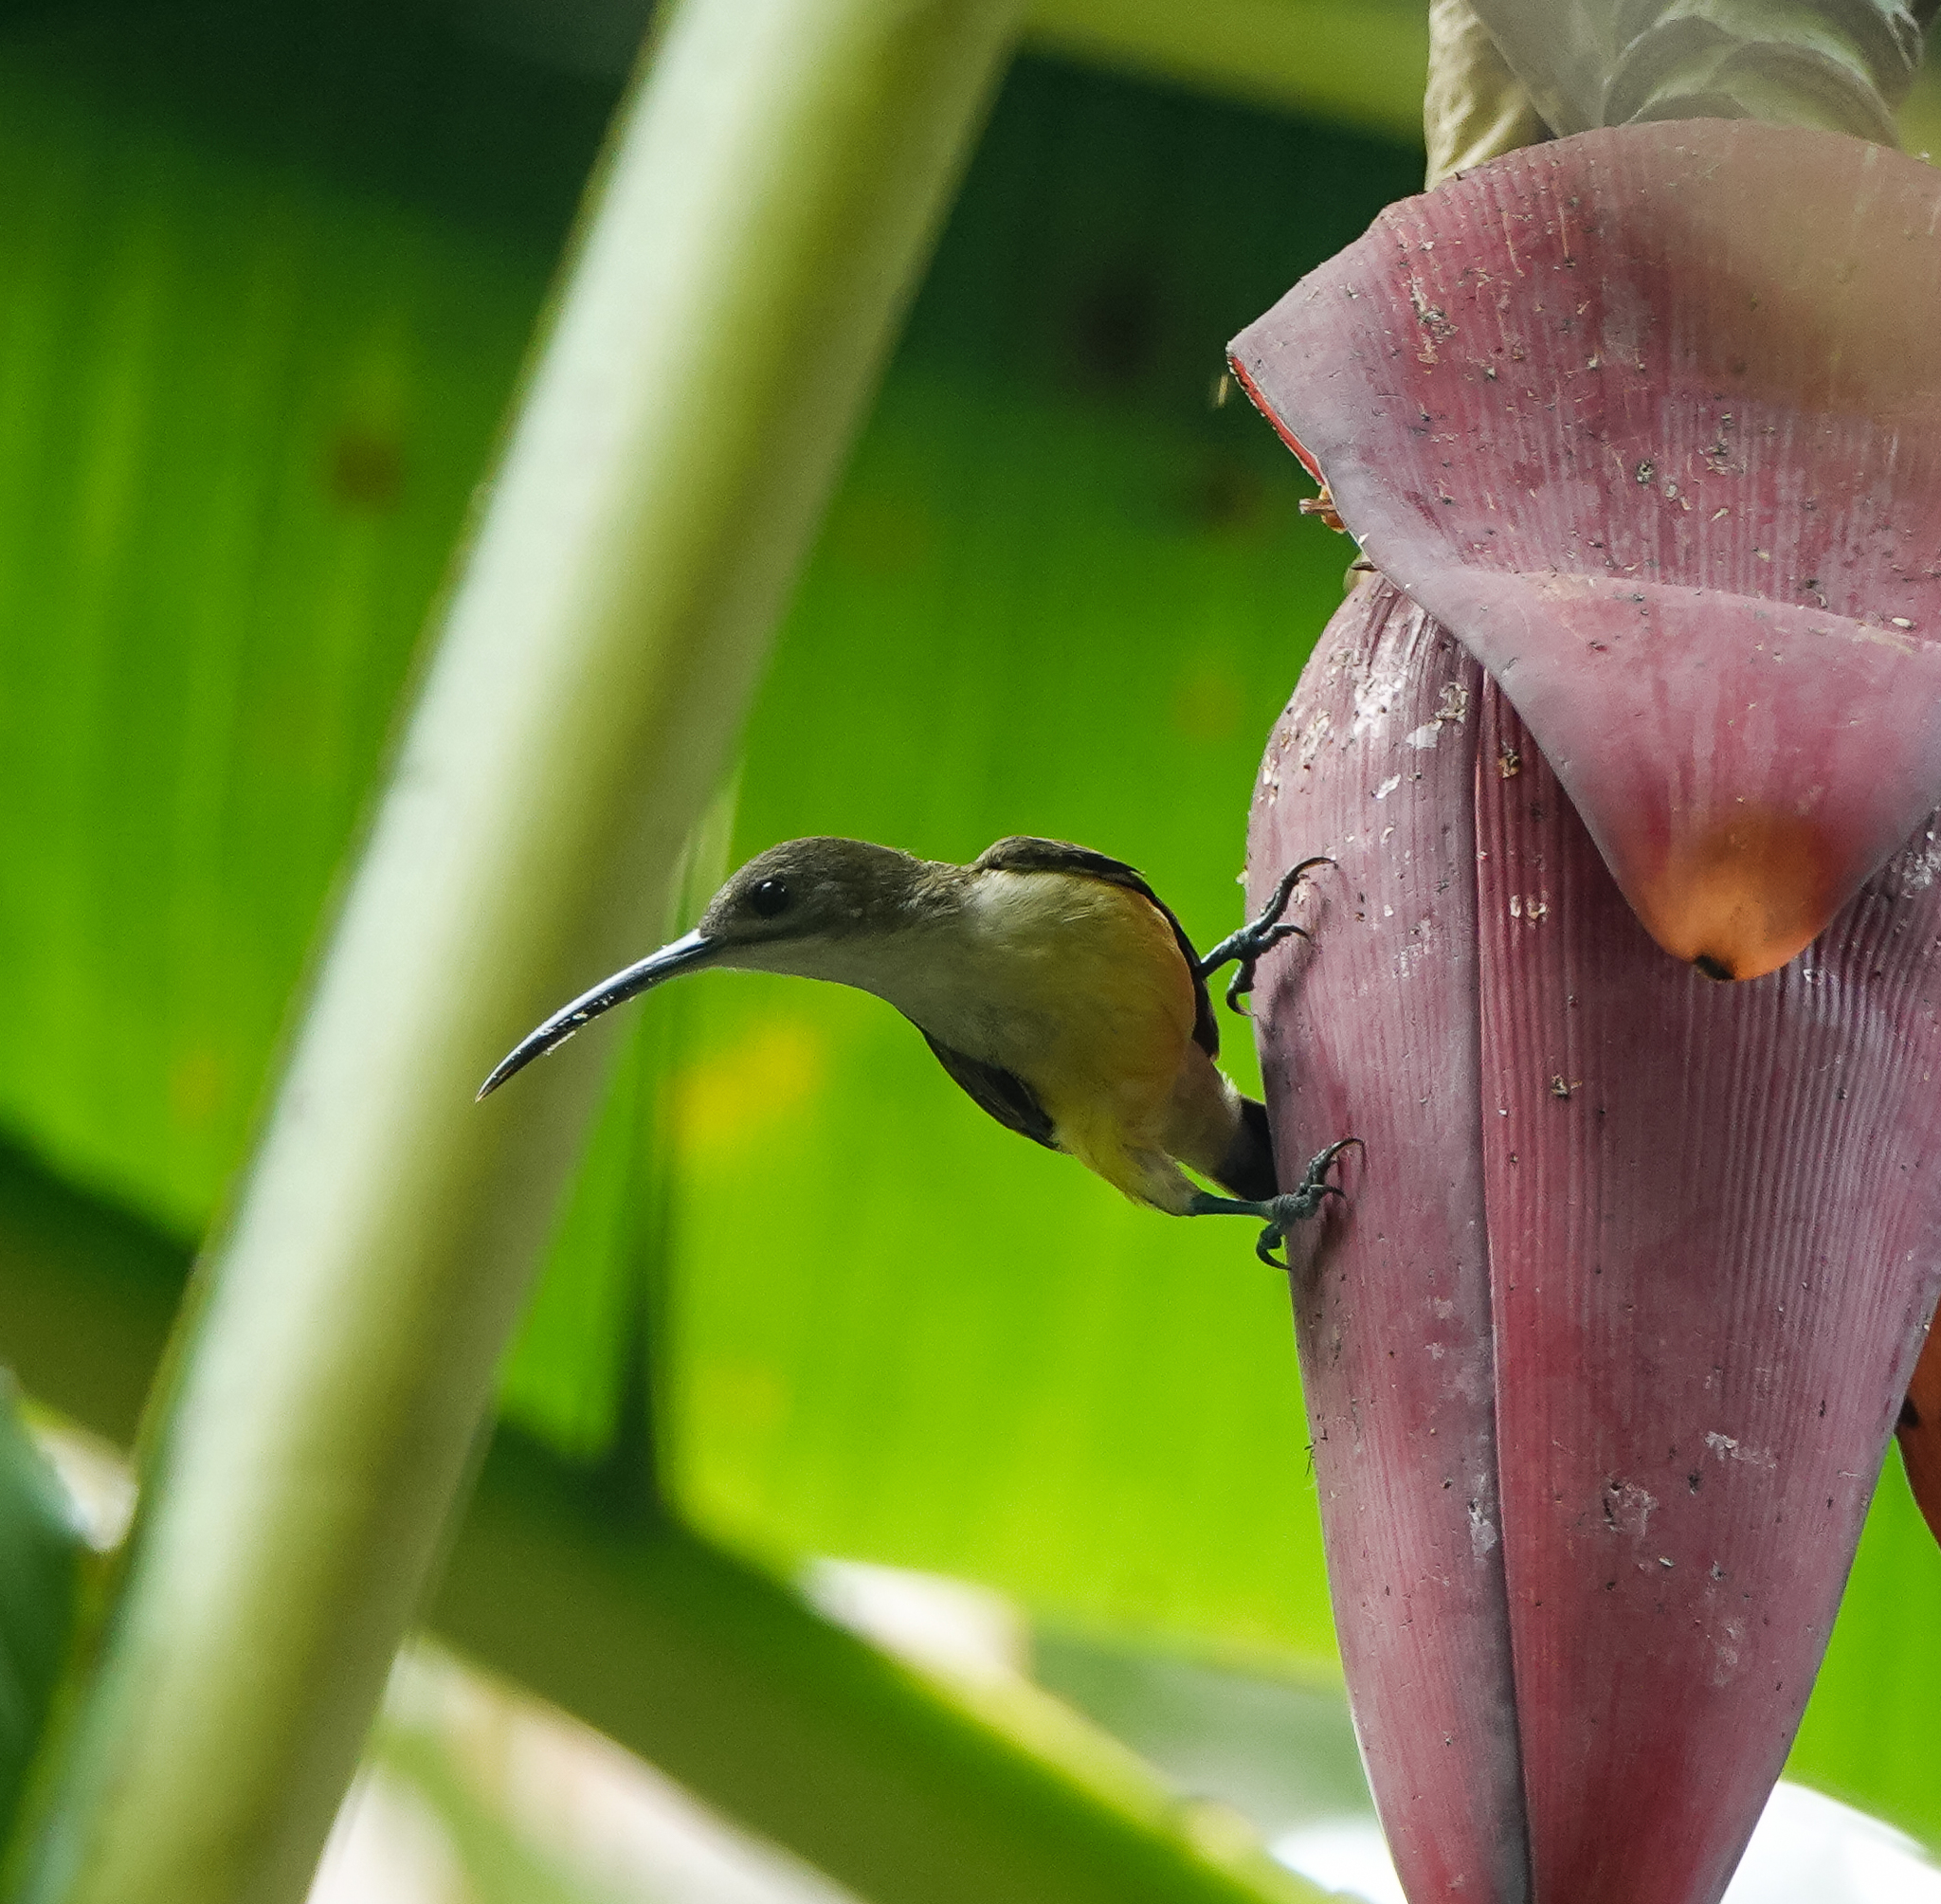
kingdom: Animalia
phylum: Chordata
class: Aves
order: Passeriformes
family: Nectariniidae
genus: Arachnothera
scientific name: Arachnothera longirostra
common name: Little spiderhunter
